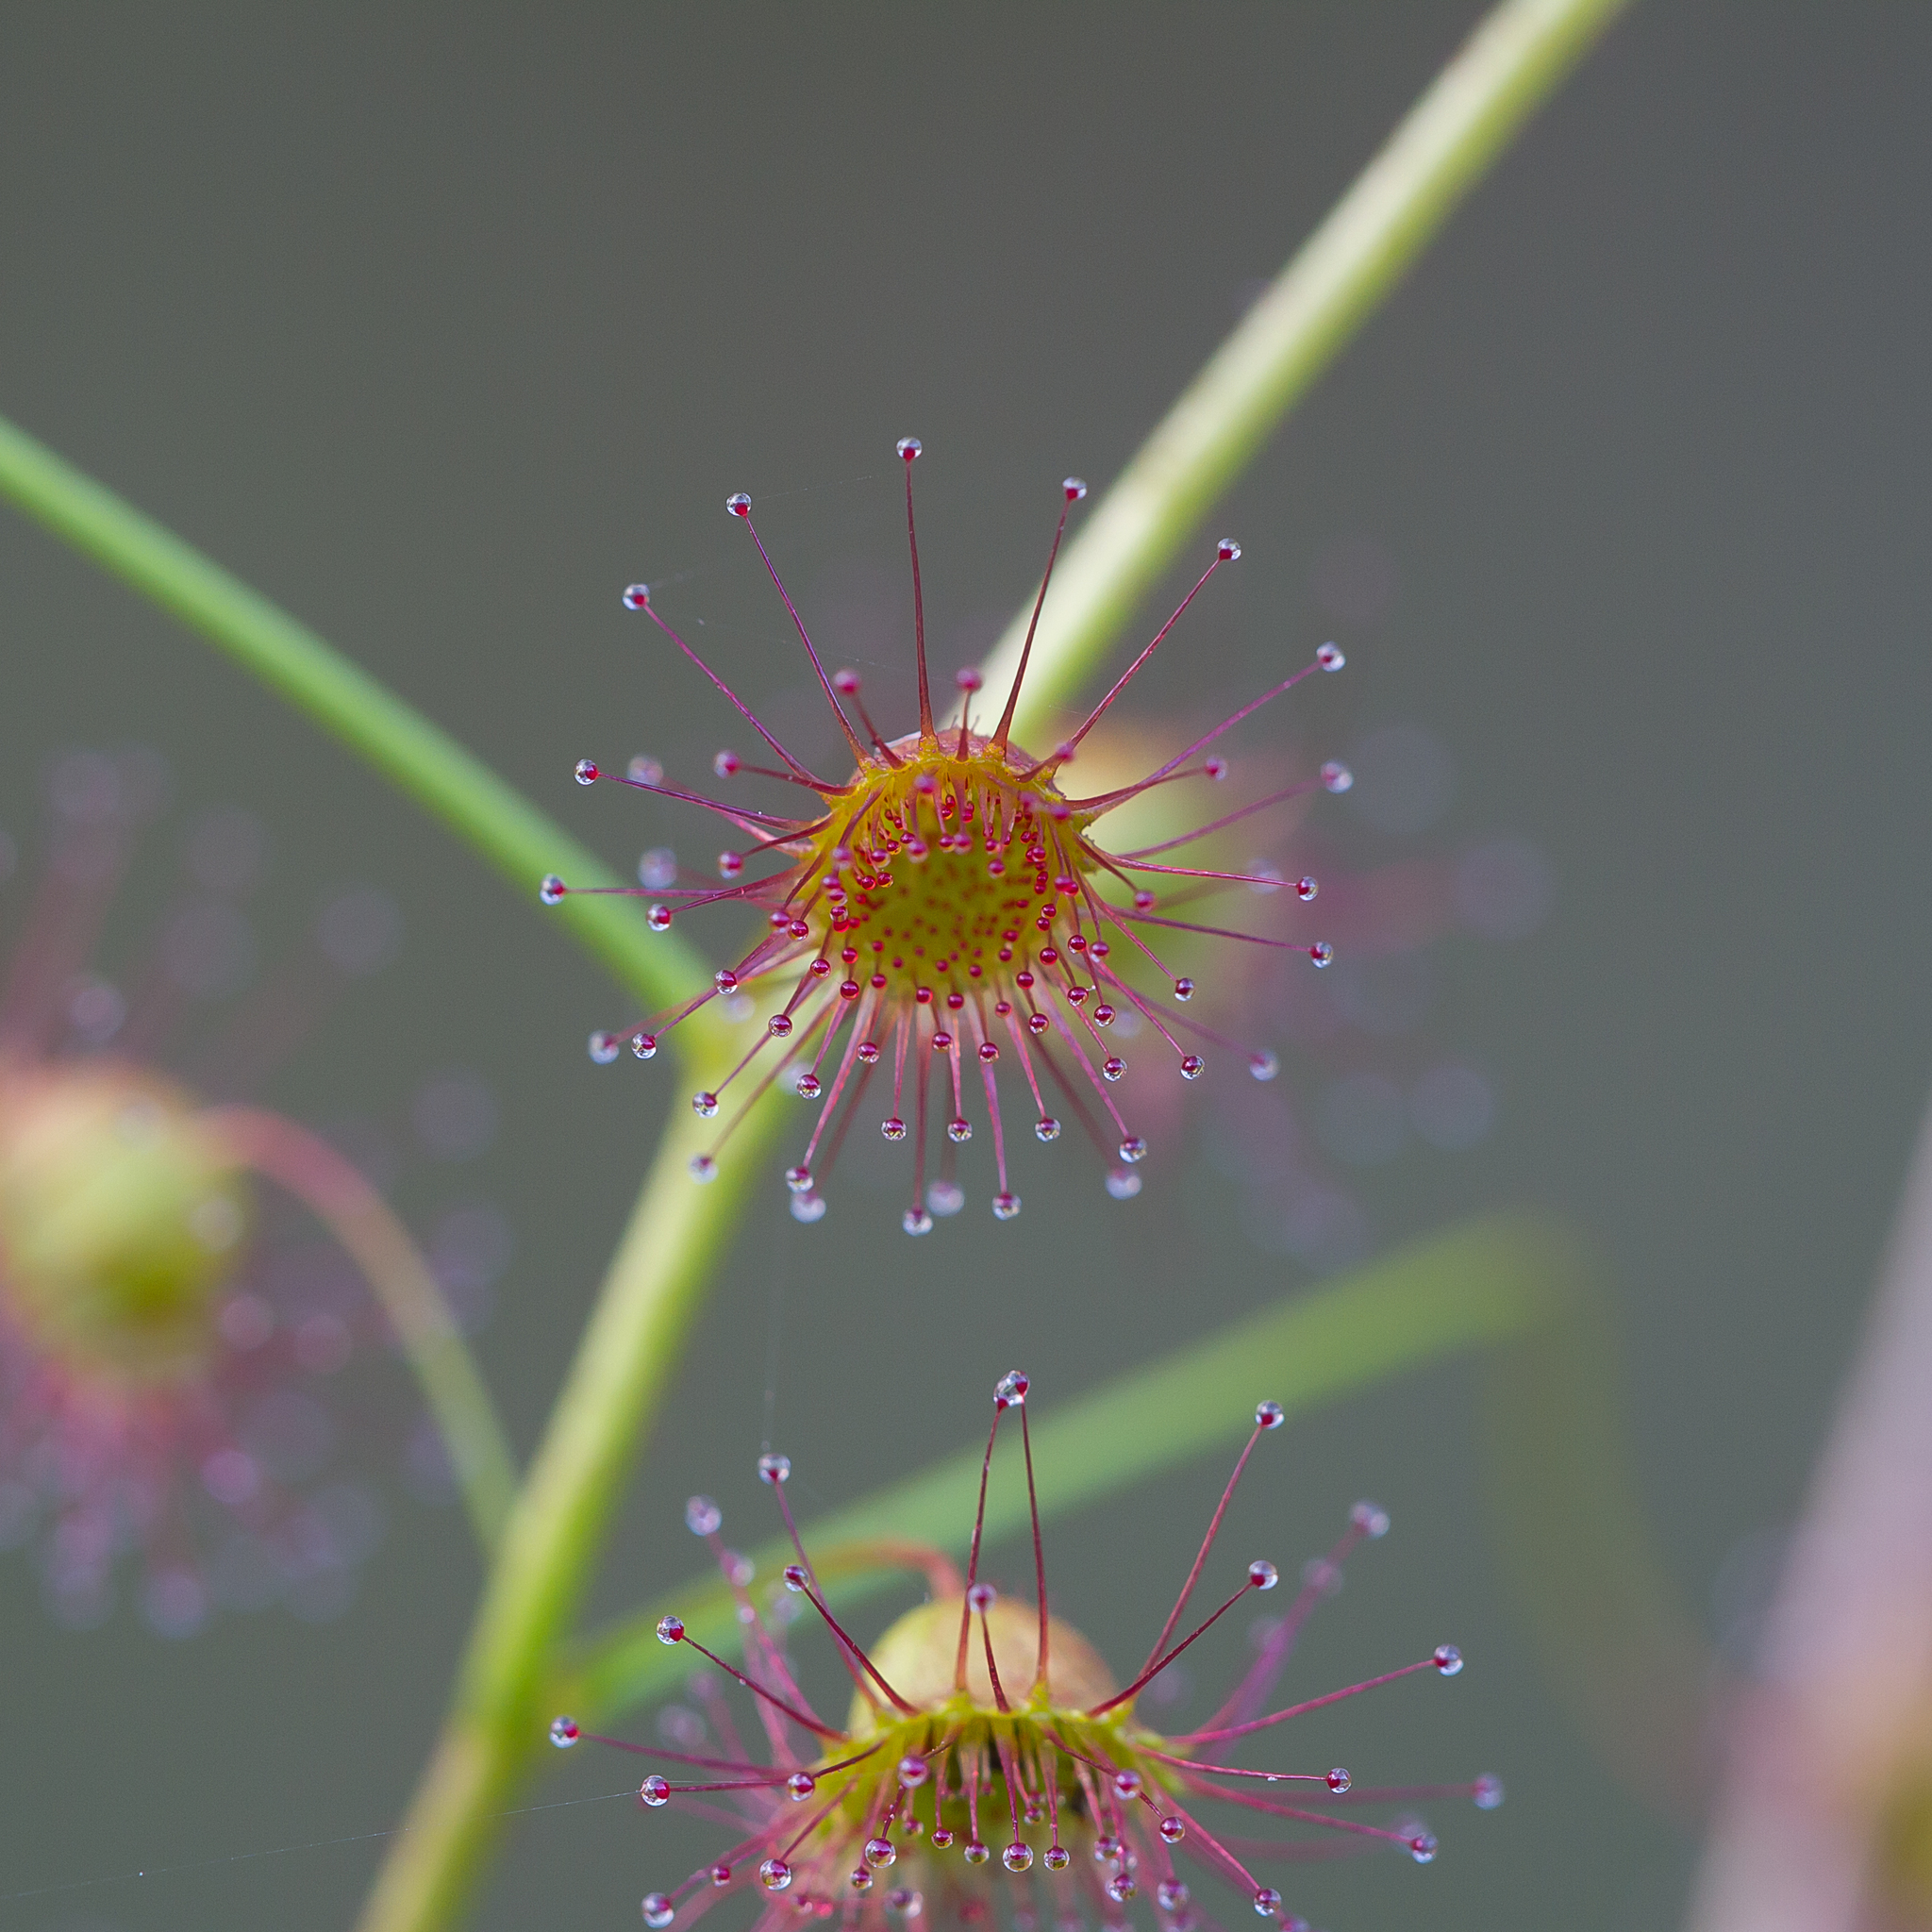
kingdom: Plantae
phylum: Tracheophyta
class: Magnoliopsida
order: Caryophyllales
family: Droseraceae
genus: Drosera
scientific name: Drosera planchonii
